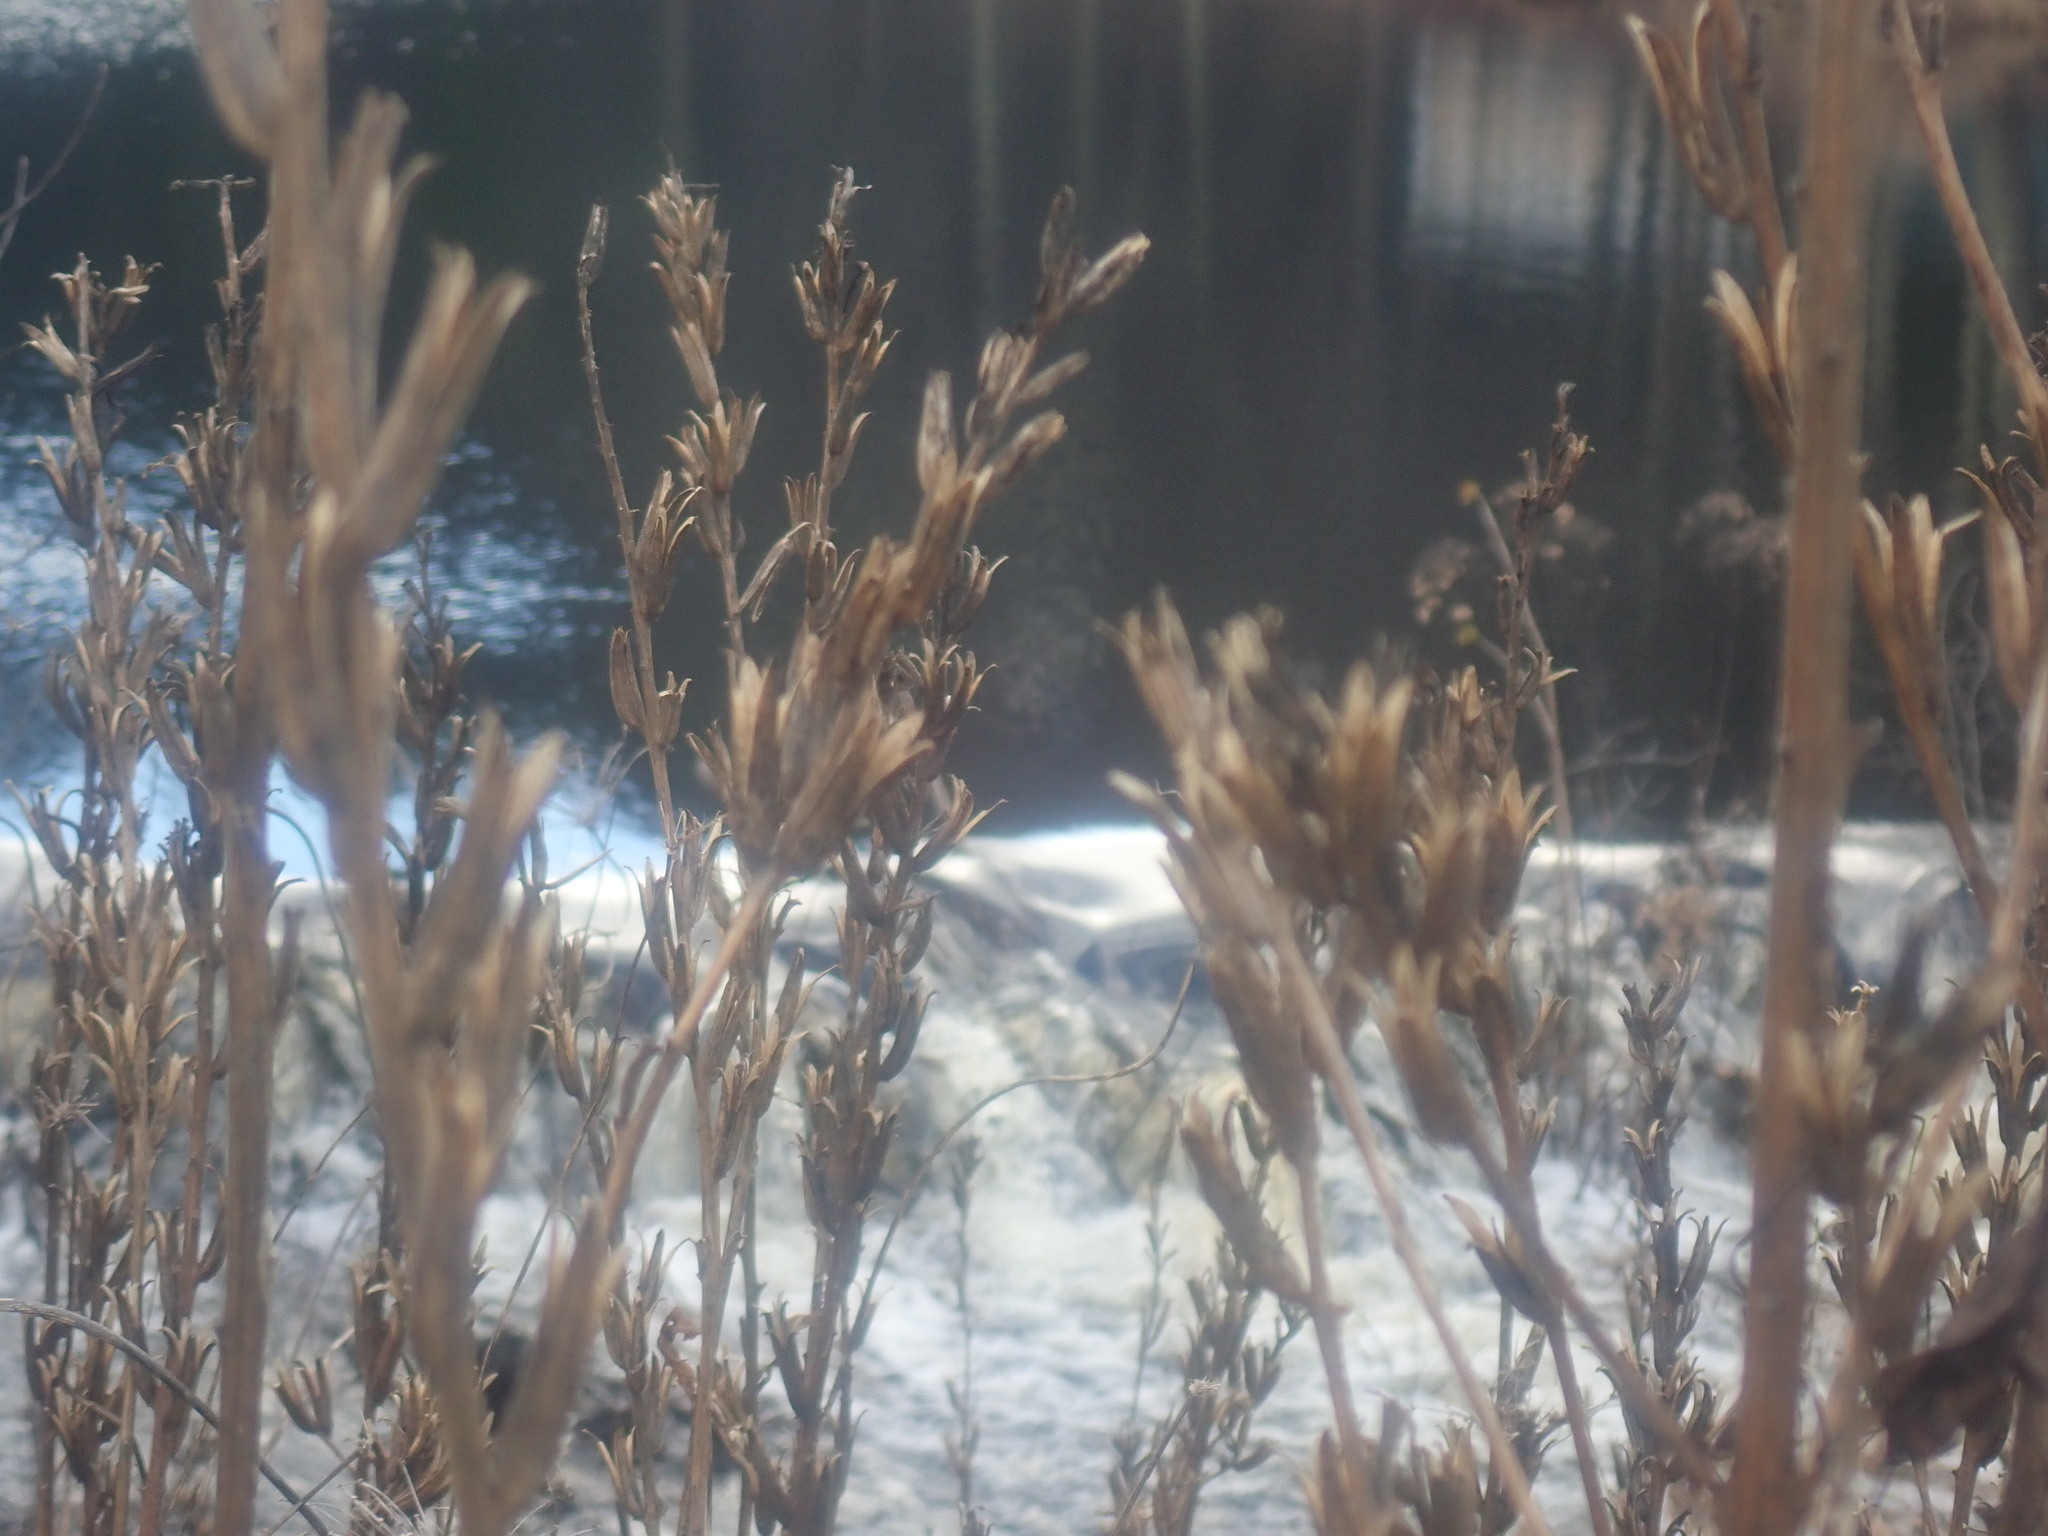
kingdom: Plantae
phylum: Tracheophyta
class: Magnoliopsida
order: Myrtales
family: Onagraceae
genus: Oenothera
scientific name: Oenothera biennis
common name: Common evening-primrose
